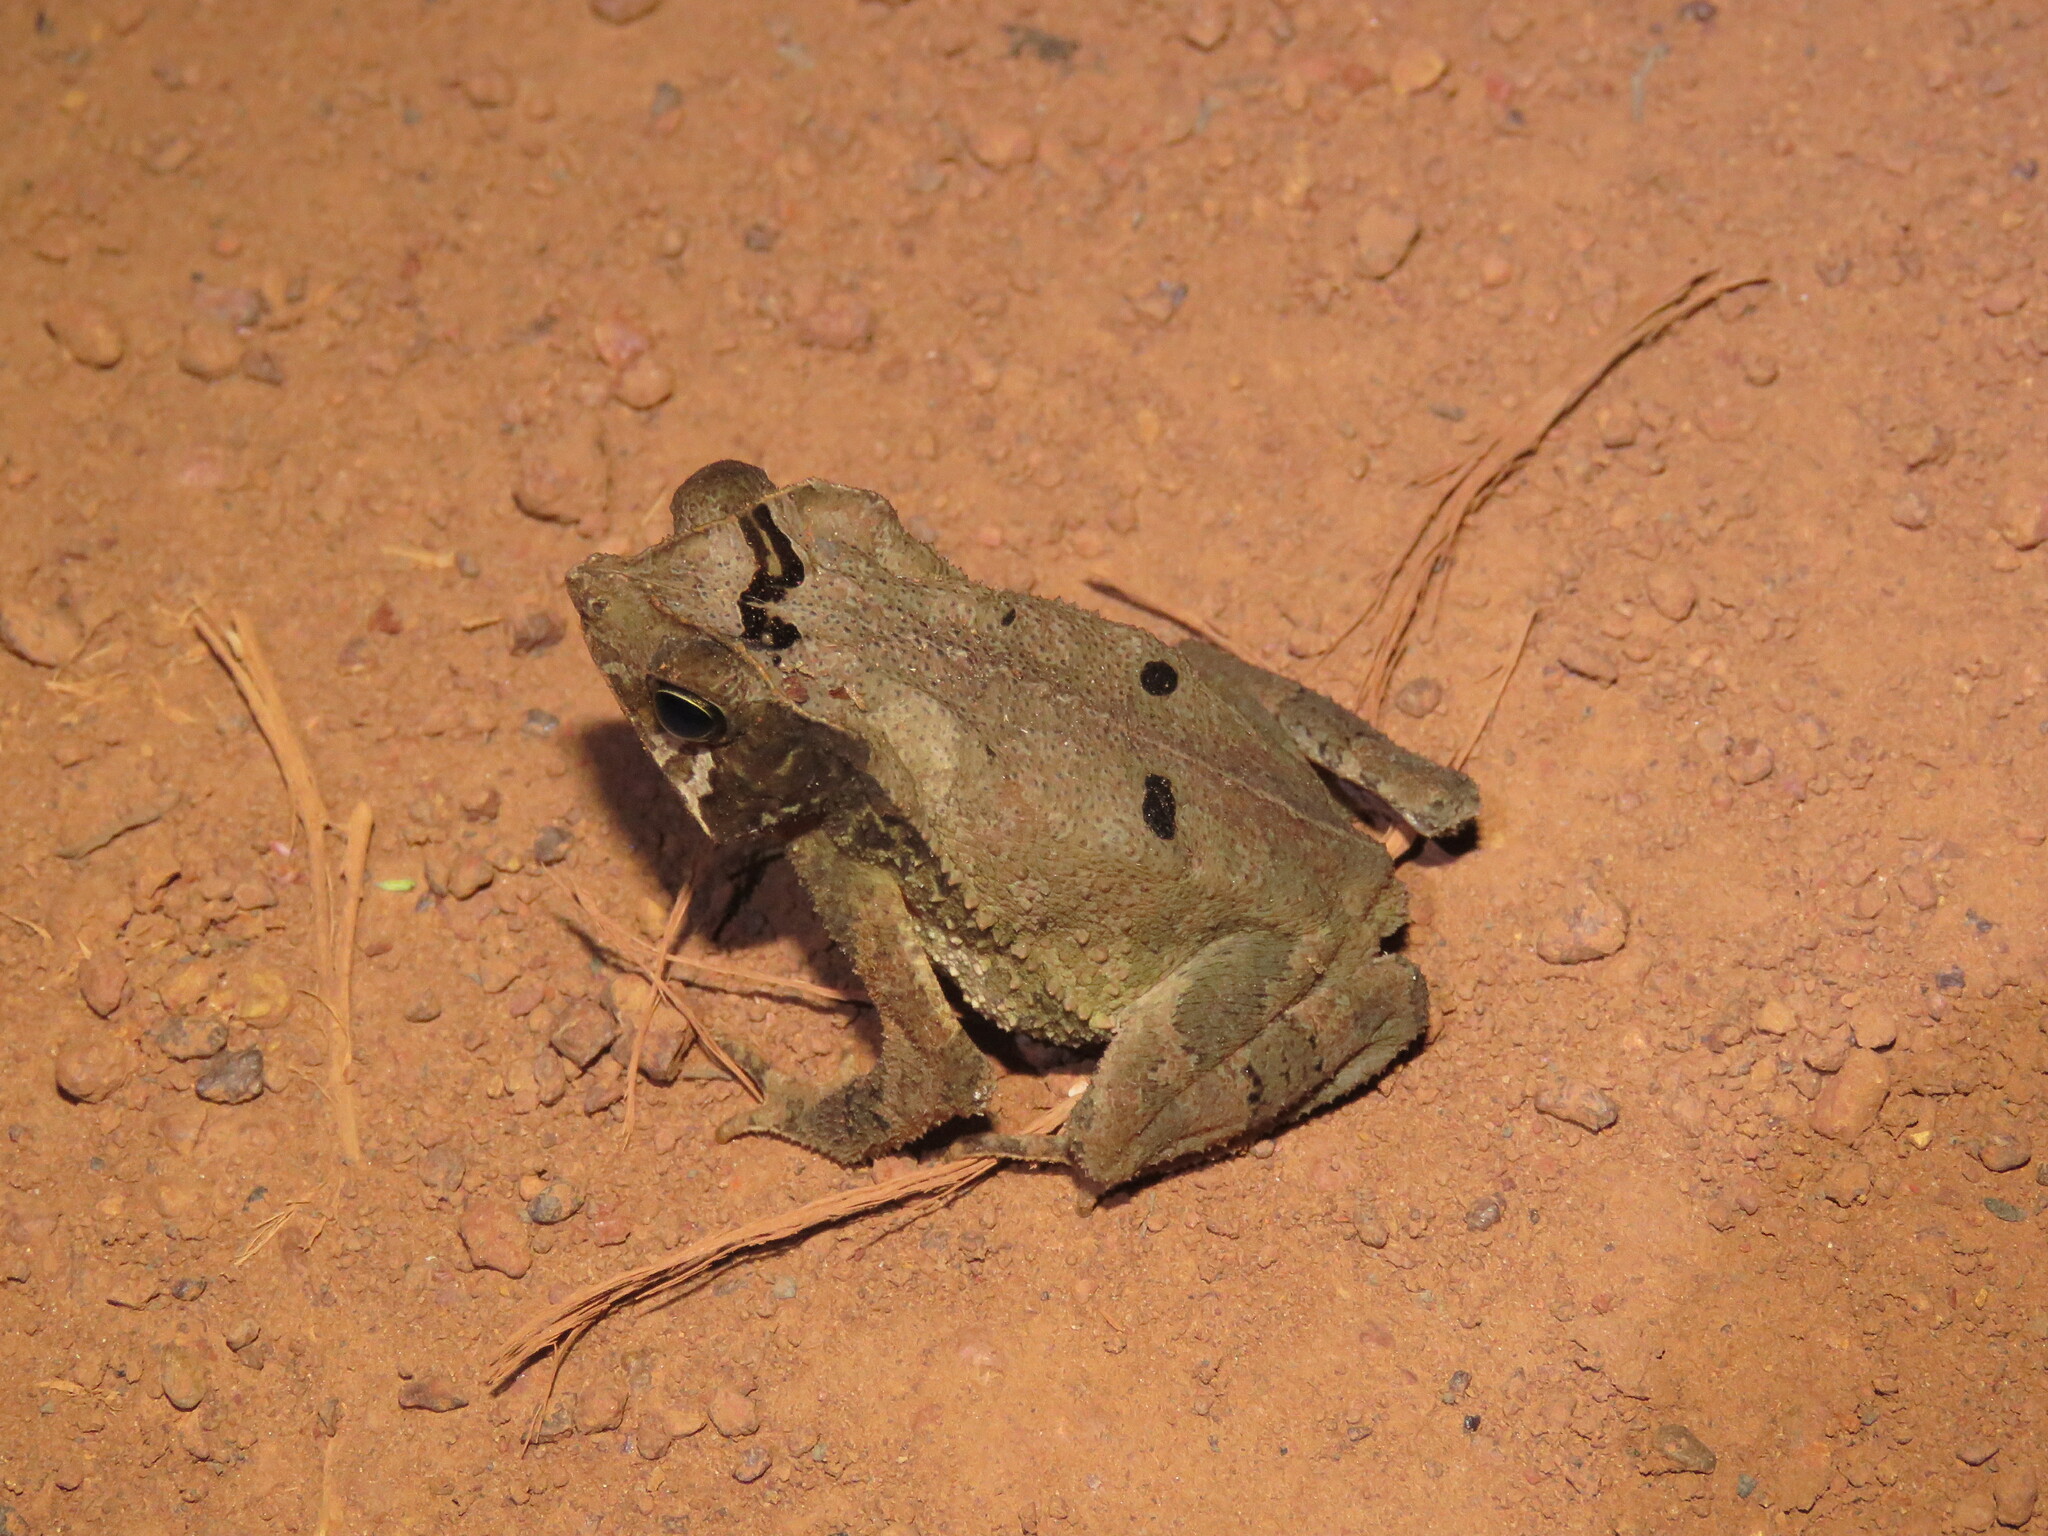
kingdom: Animalia
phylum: Chordata
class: Amphibia
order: Anura
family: Bufonidae
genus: Rhinella
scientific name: Rhinella exostosica
